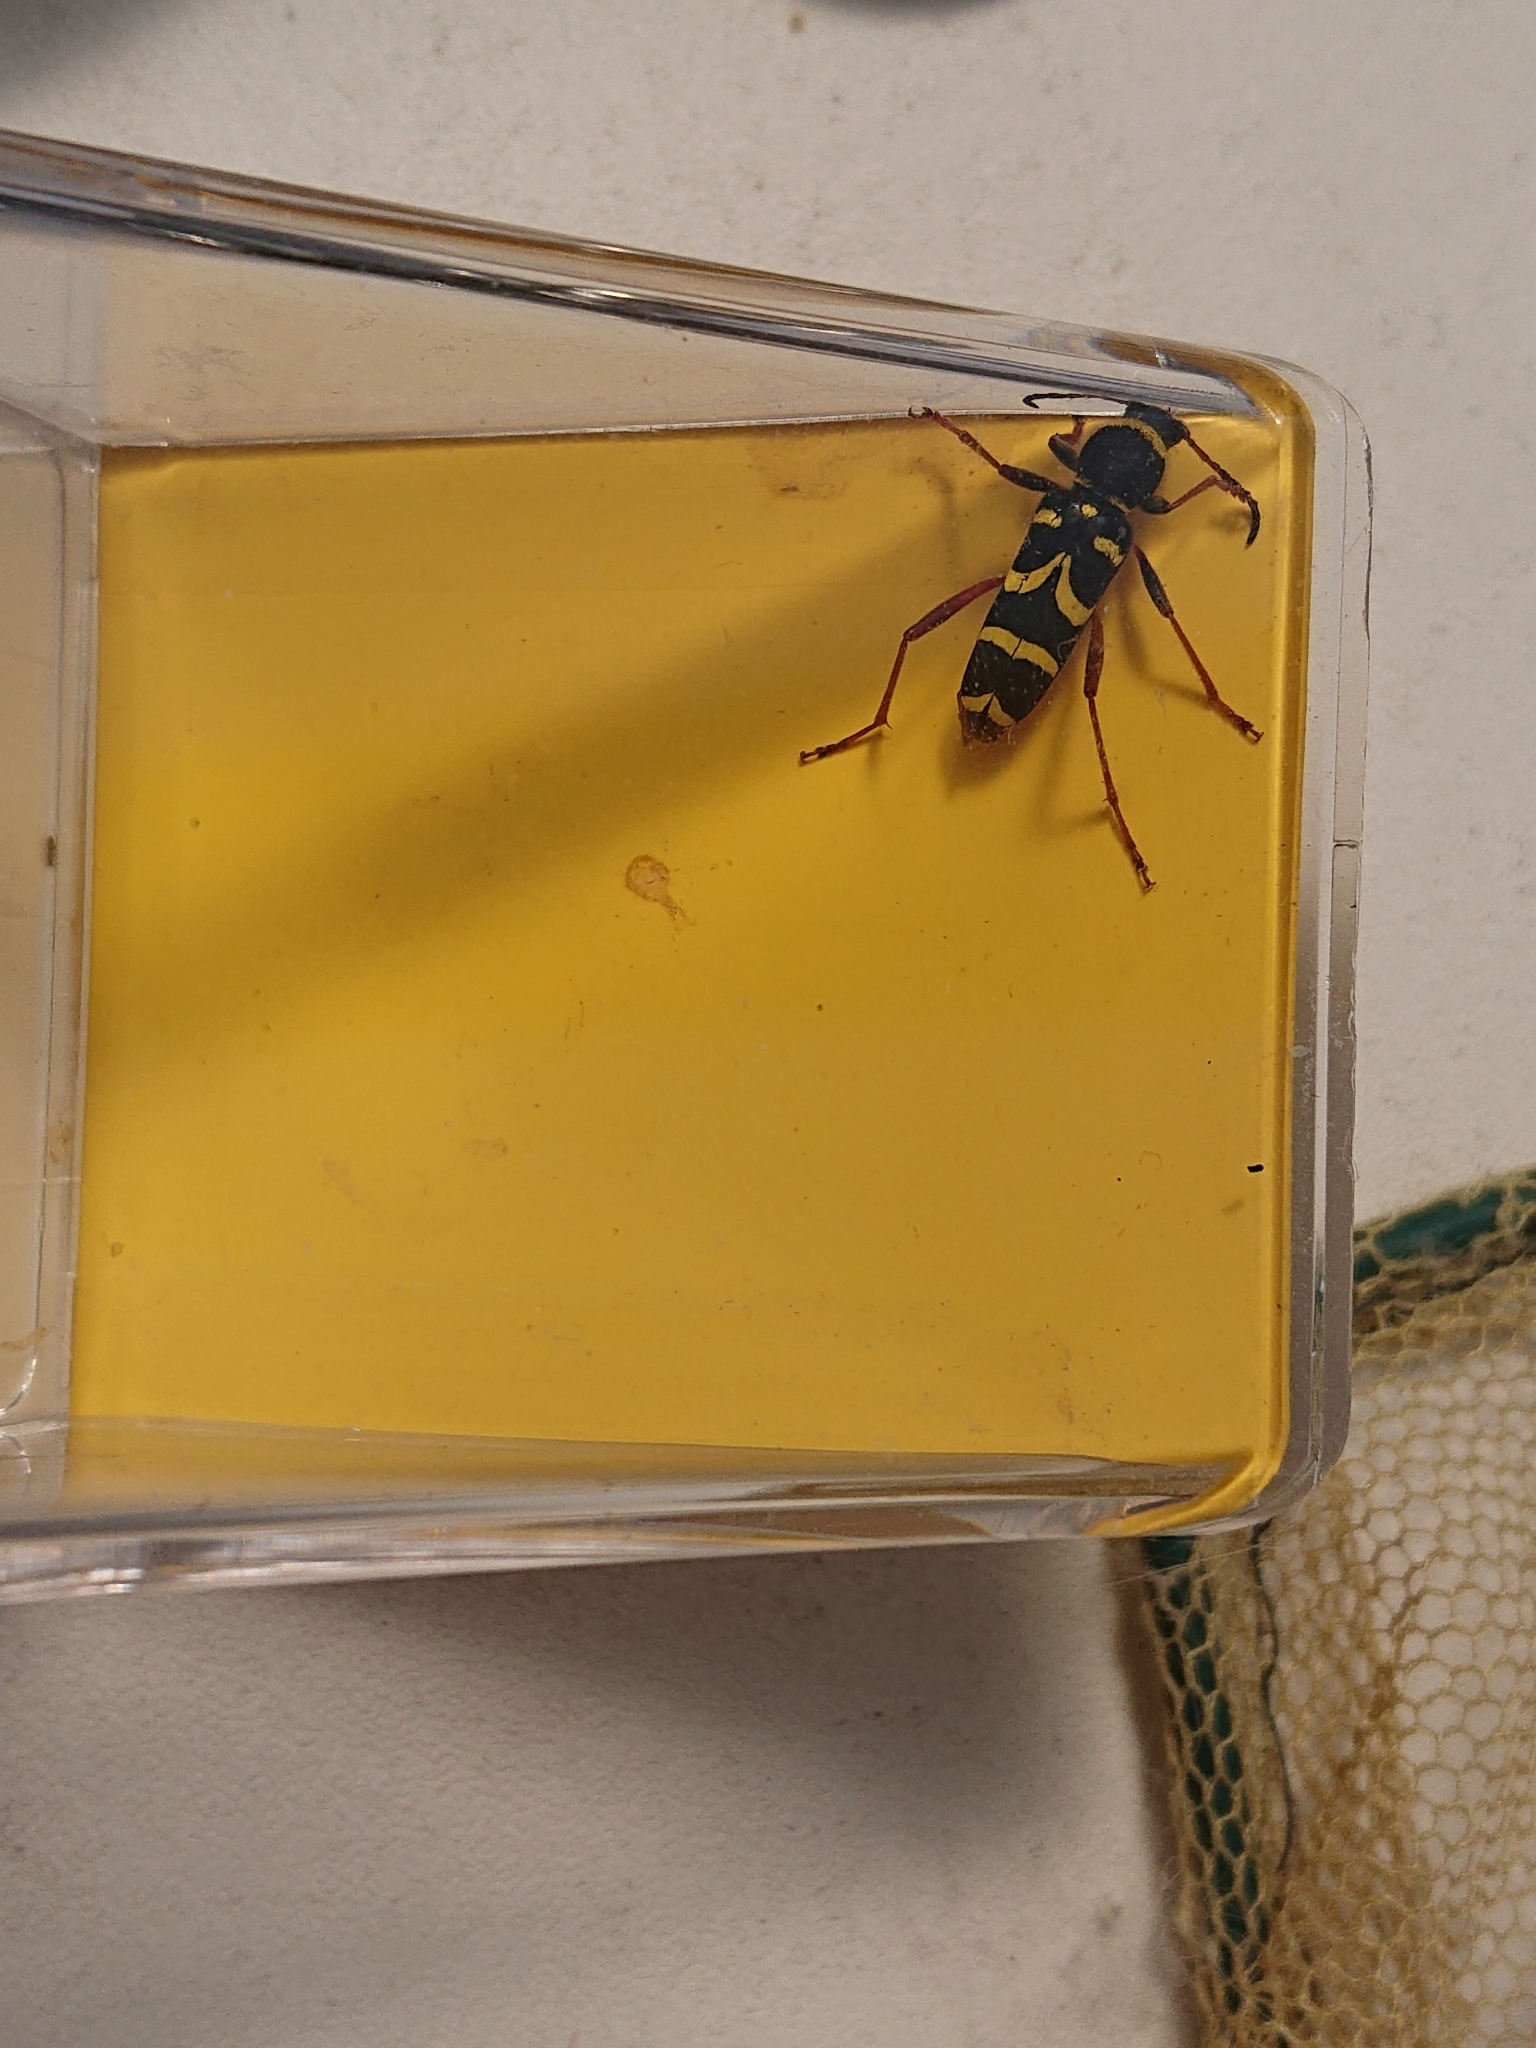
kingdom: Animalia
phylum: Arthropoda
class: Insecta
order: Coleoptera
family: Cerambycidae
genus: Clytus
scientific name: Clytus arietis
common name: Wasp beetle
